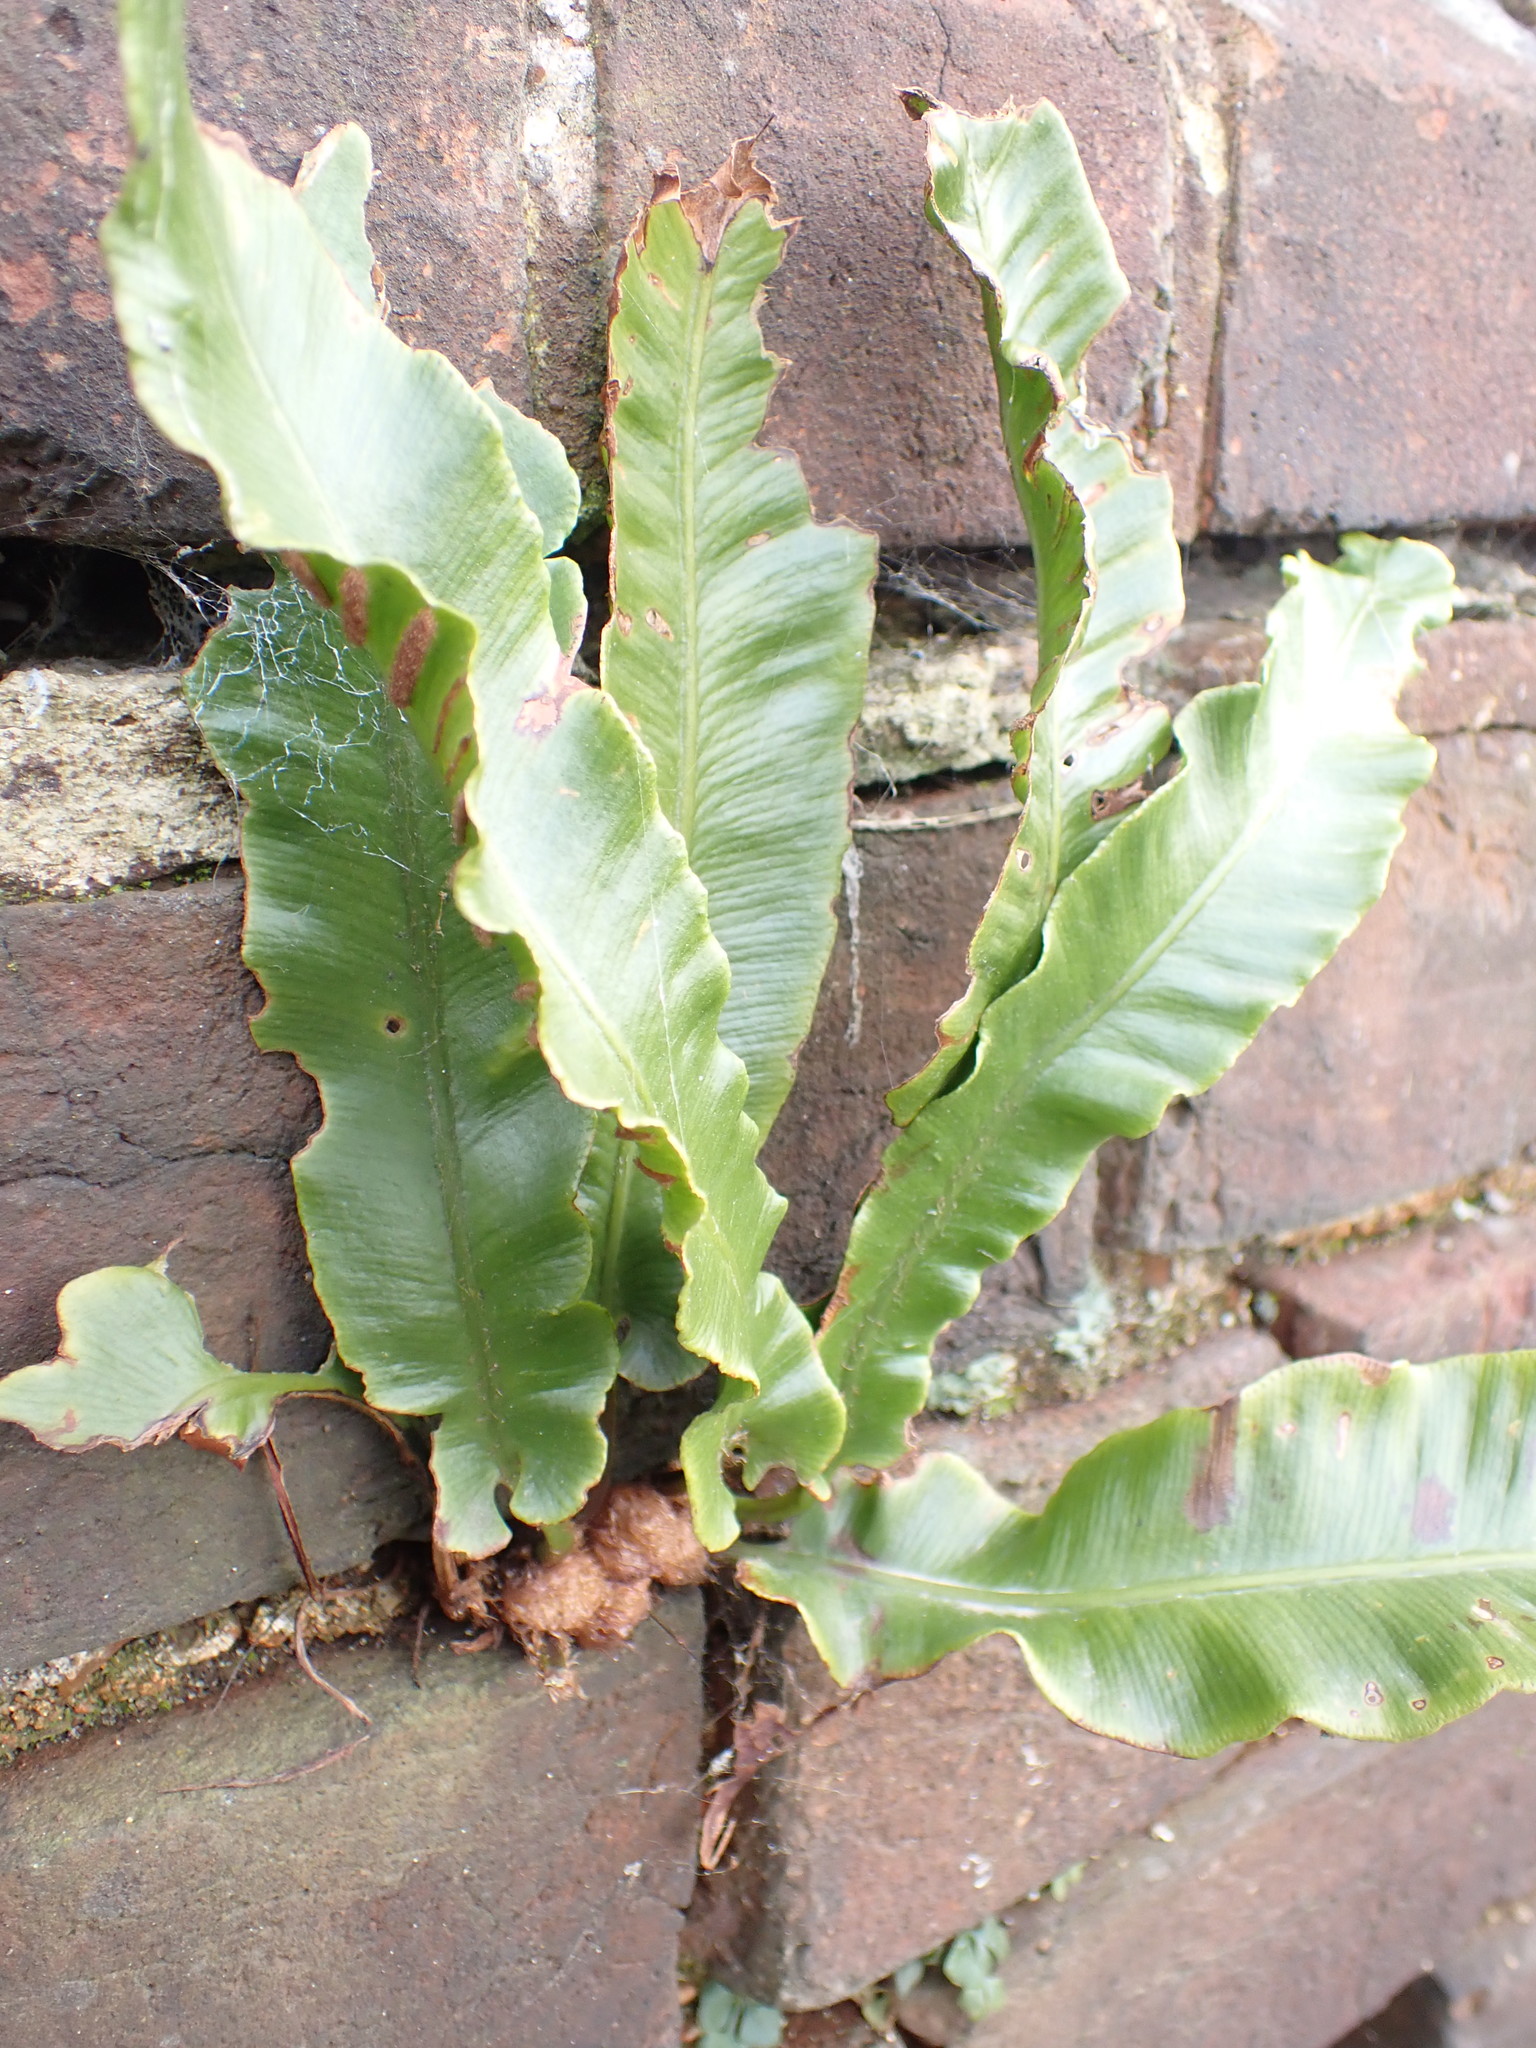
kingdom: Plantae
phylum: Tracheophyta
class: Polypodiopsida
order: Polypodiales
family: Aspleniaceae
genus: Asplenium
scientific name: Asplenium scolopendrium
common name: Hart's-tongue fern
